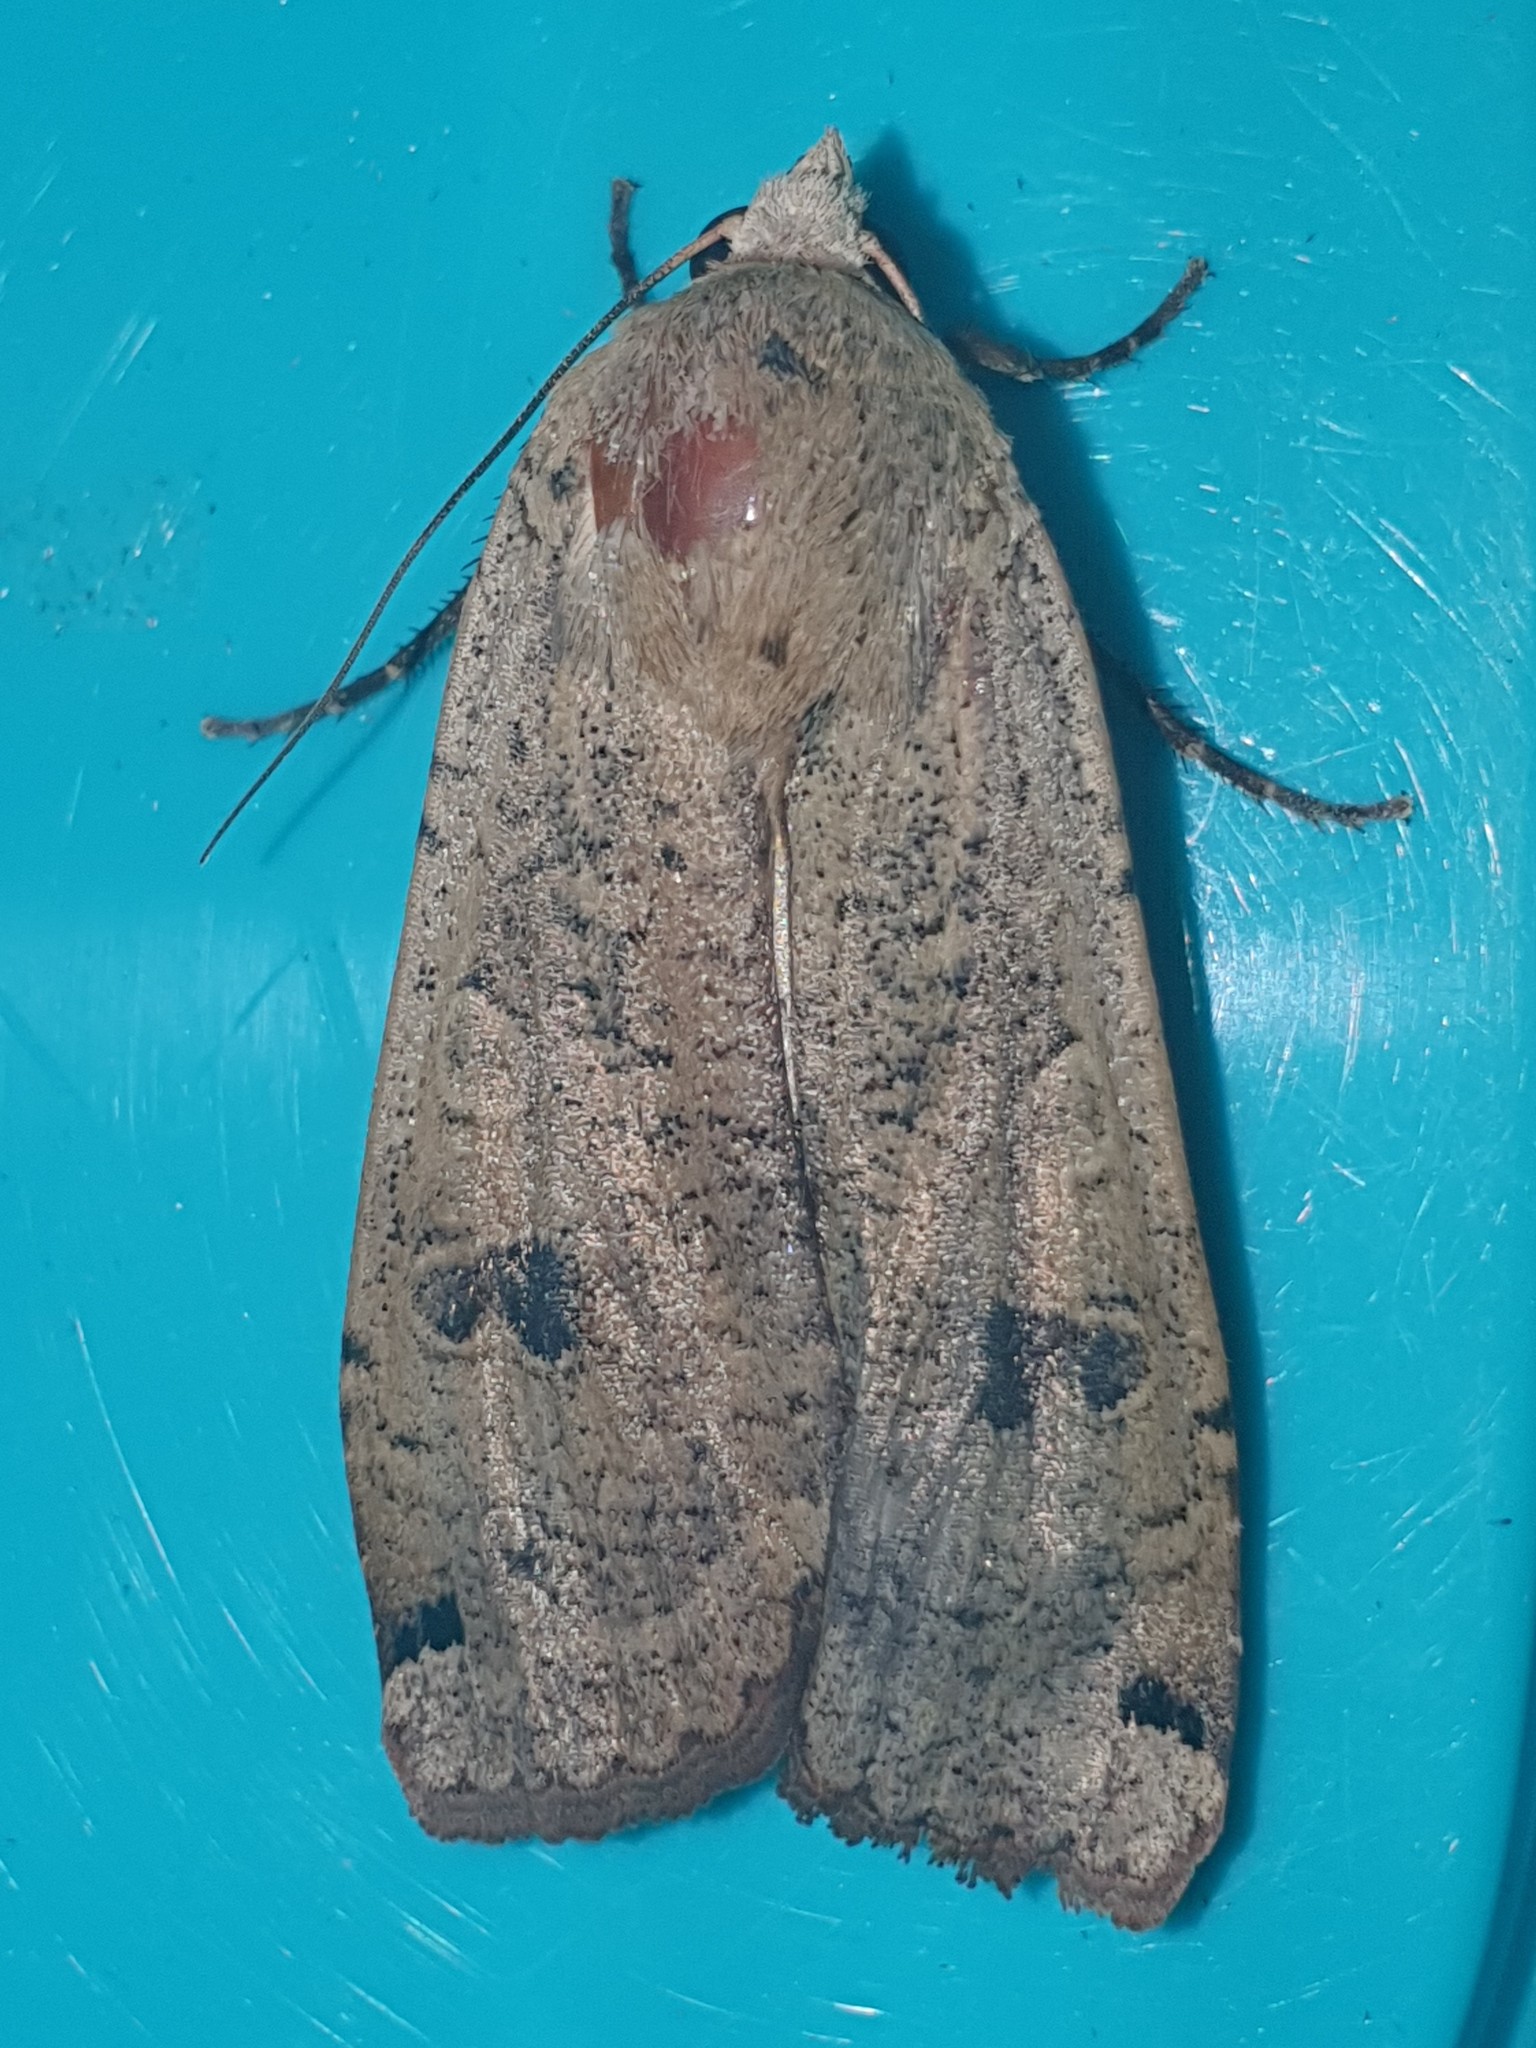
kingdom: Animalia
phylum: Arthropoda
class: Insecta
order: Lepidoptera
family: Noctuidae
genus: Noctua
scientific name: Noctua pronuba
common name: Large yellow underwing
